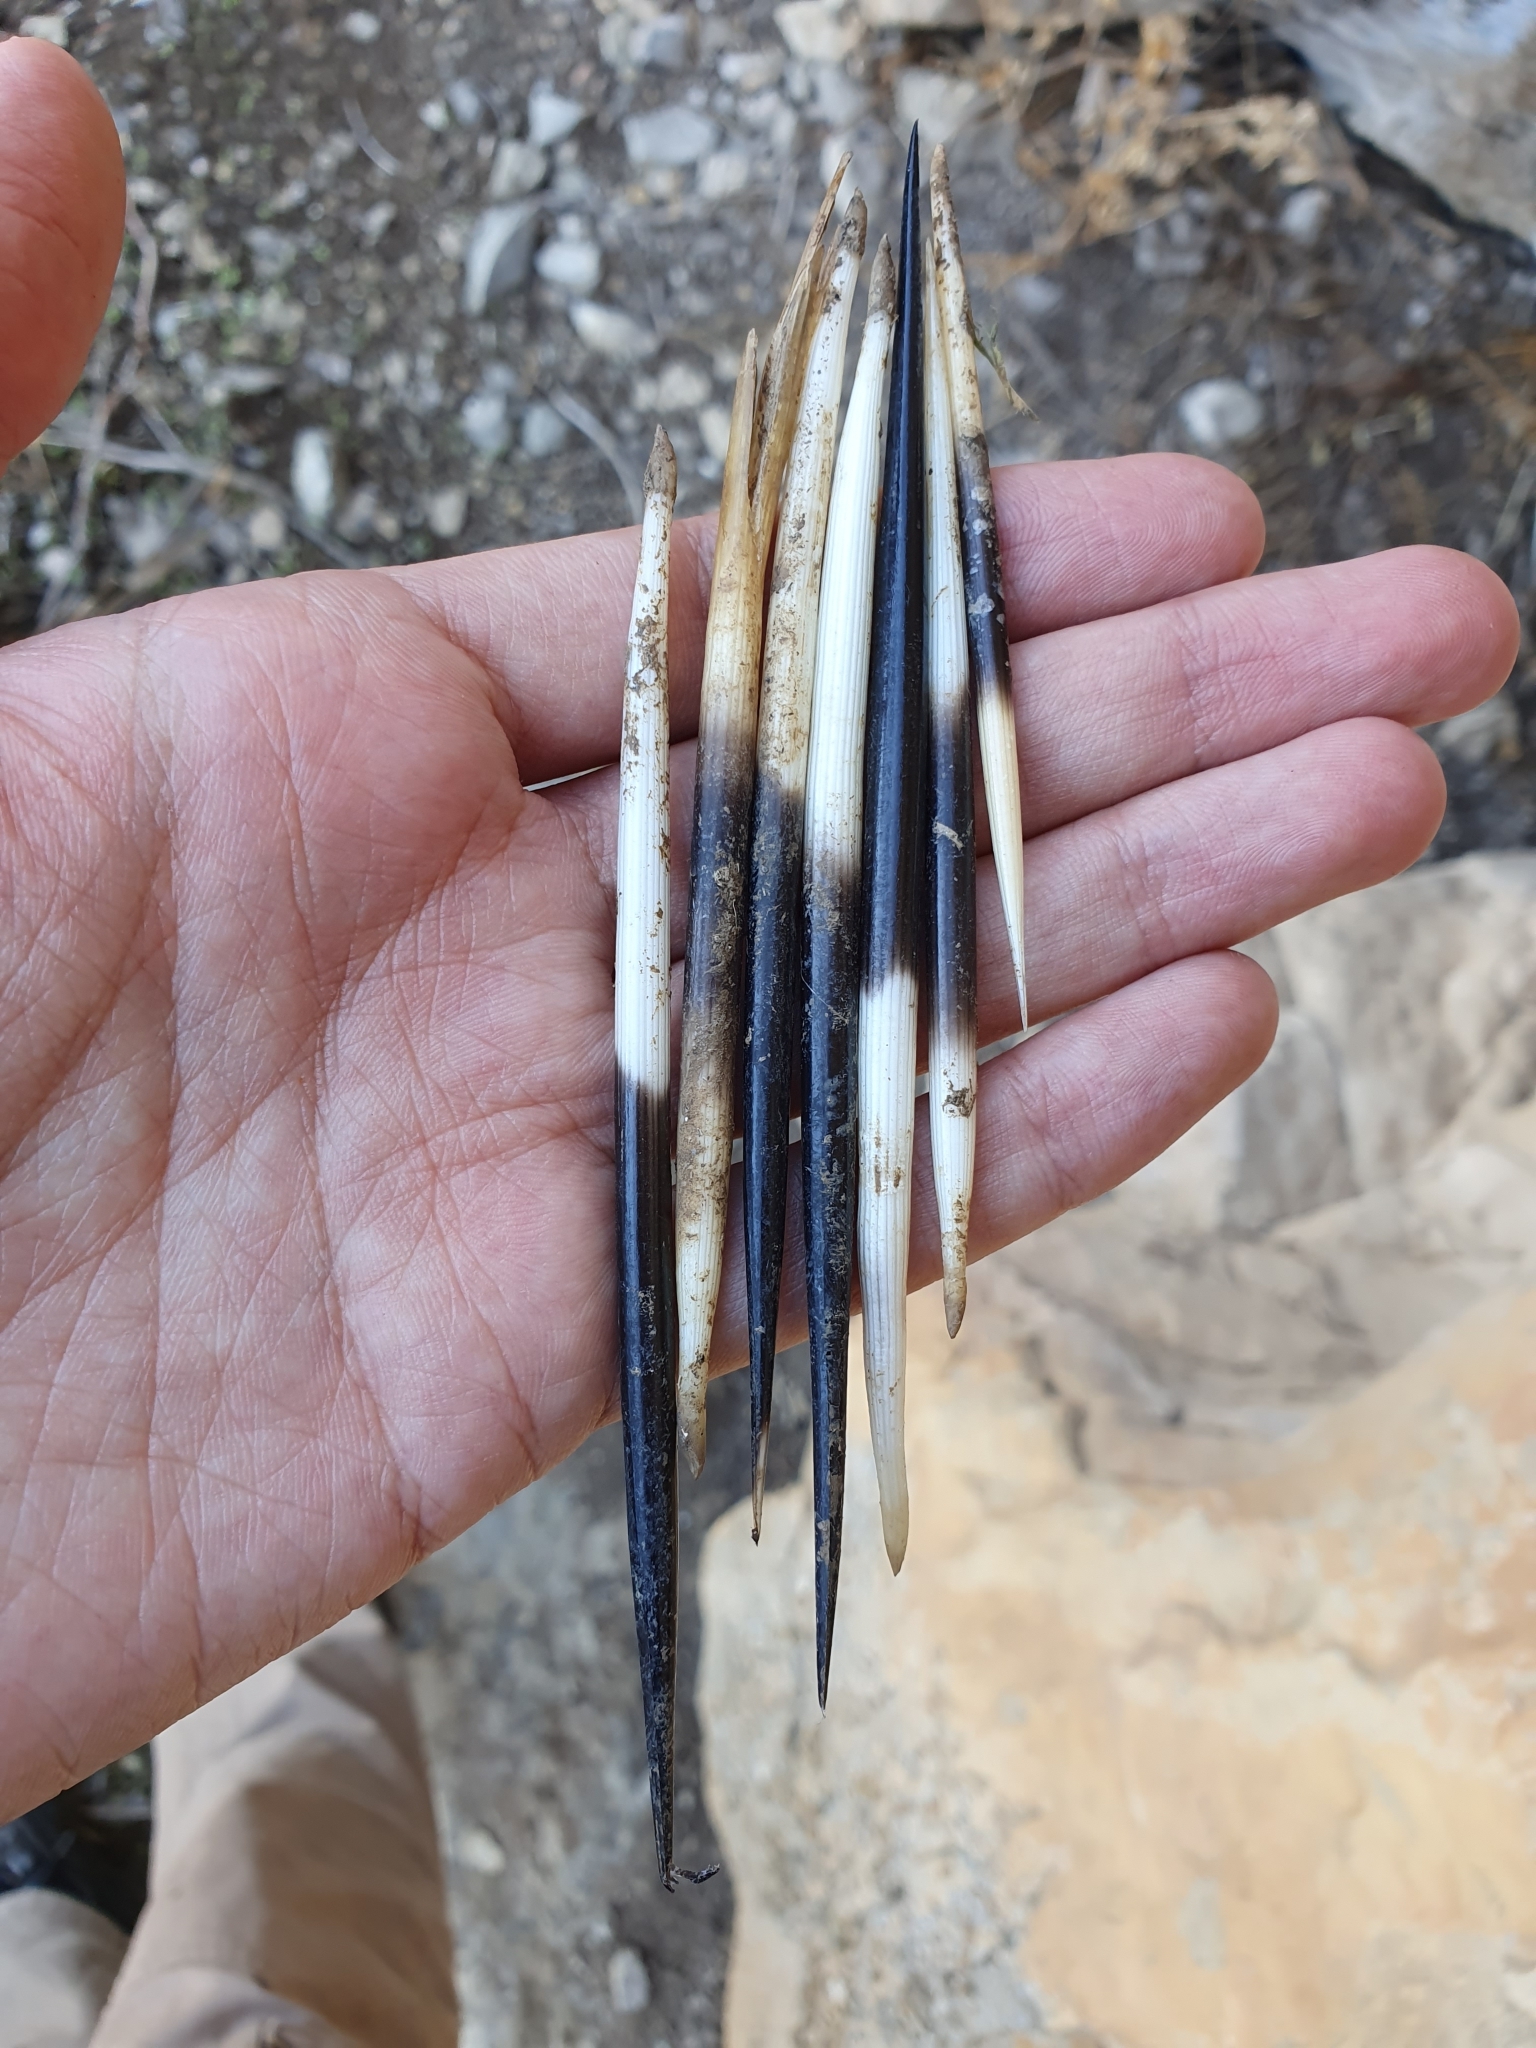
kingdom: Animalia
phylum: Chordata
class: Mammalia
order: Rodentia
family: Hystricidae
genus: Hystrix
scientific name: Hystrix cristata
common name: Crested porcupine
